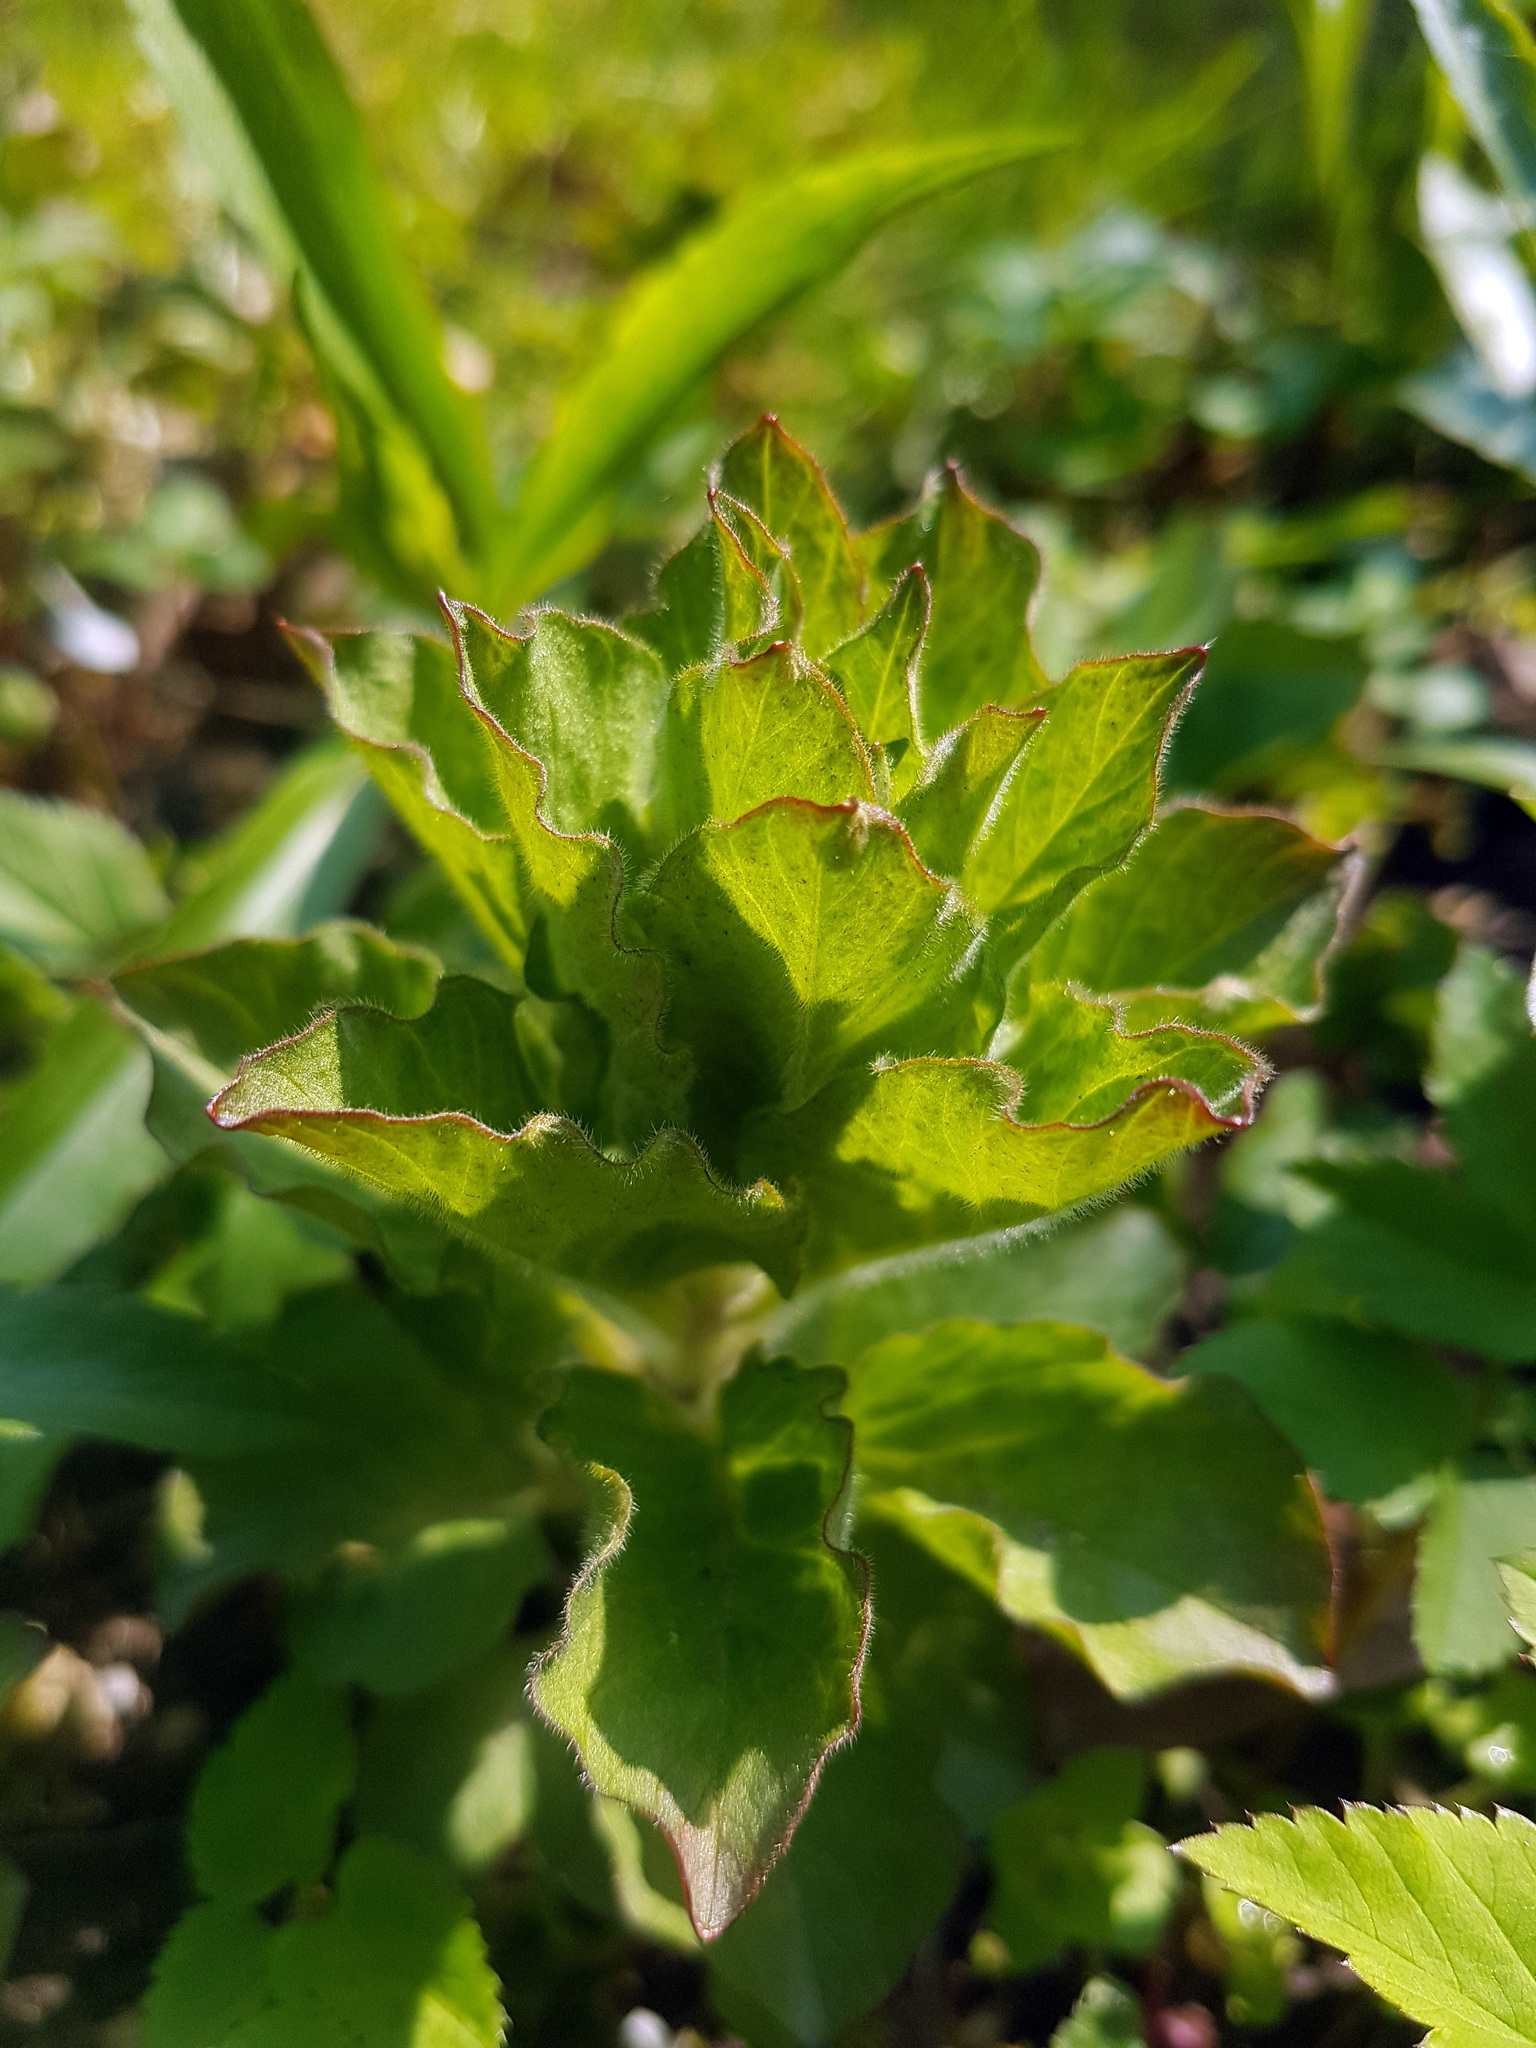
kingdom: Plantae
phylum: Tracheophyta
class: Magnoliopsida
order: Ericales
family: Primulaceae
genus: Lysimachia
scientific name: Lysimachia punctata
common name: Dotted loosestrife
